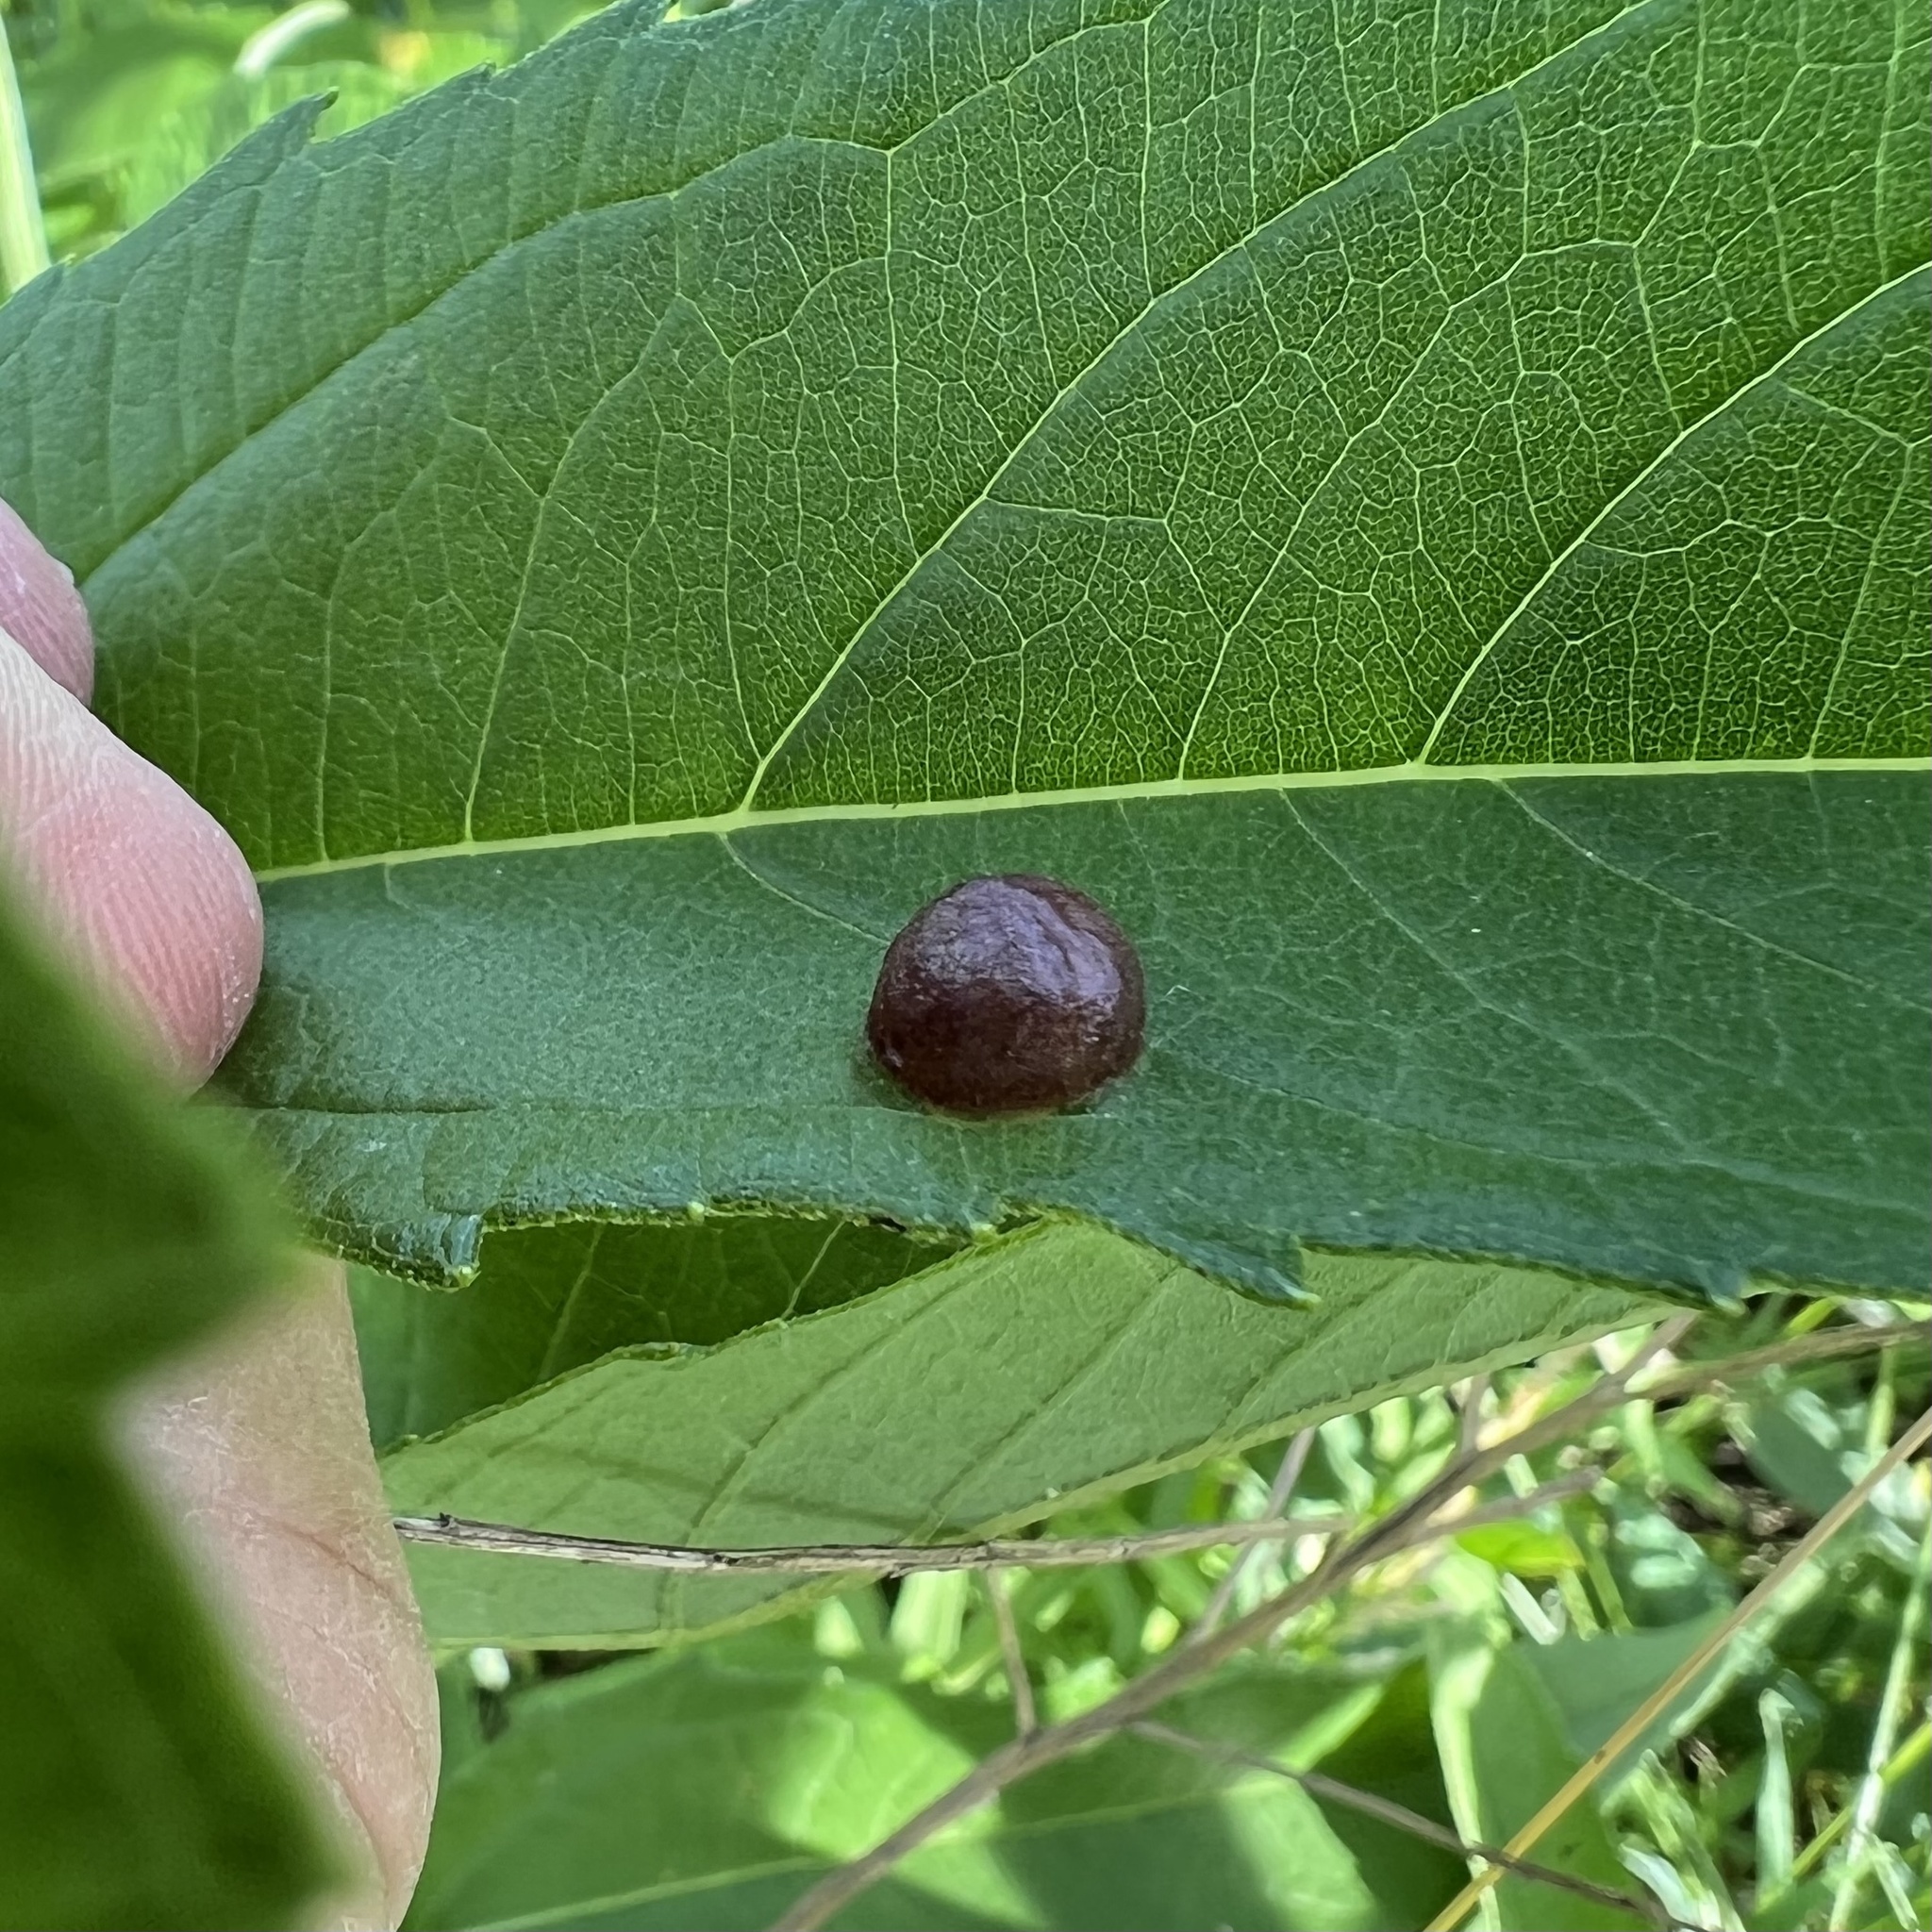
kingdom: Animalia
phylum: Arthropoda
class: Insecta
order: Diptera
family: Cecidomyiidae
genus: Pilodiplosis
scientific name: Pilodiplosis helianthibulla
